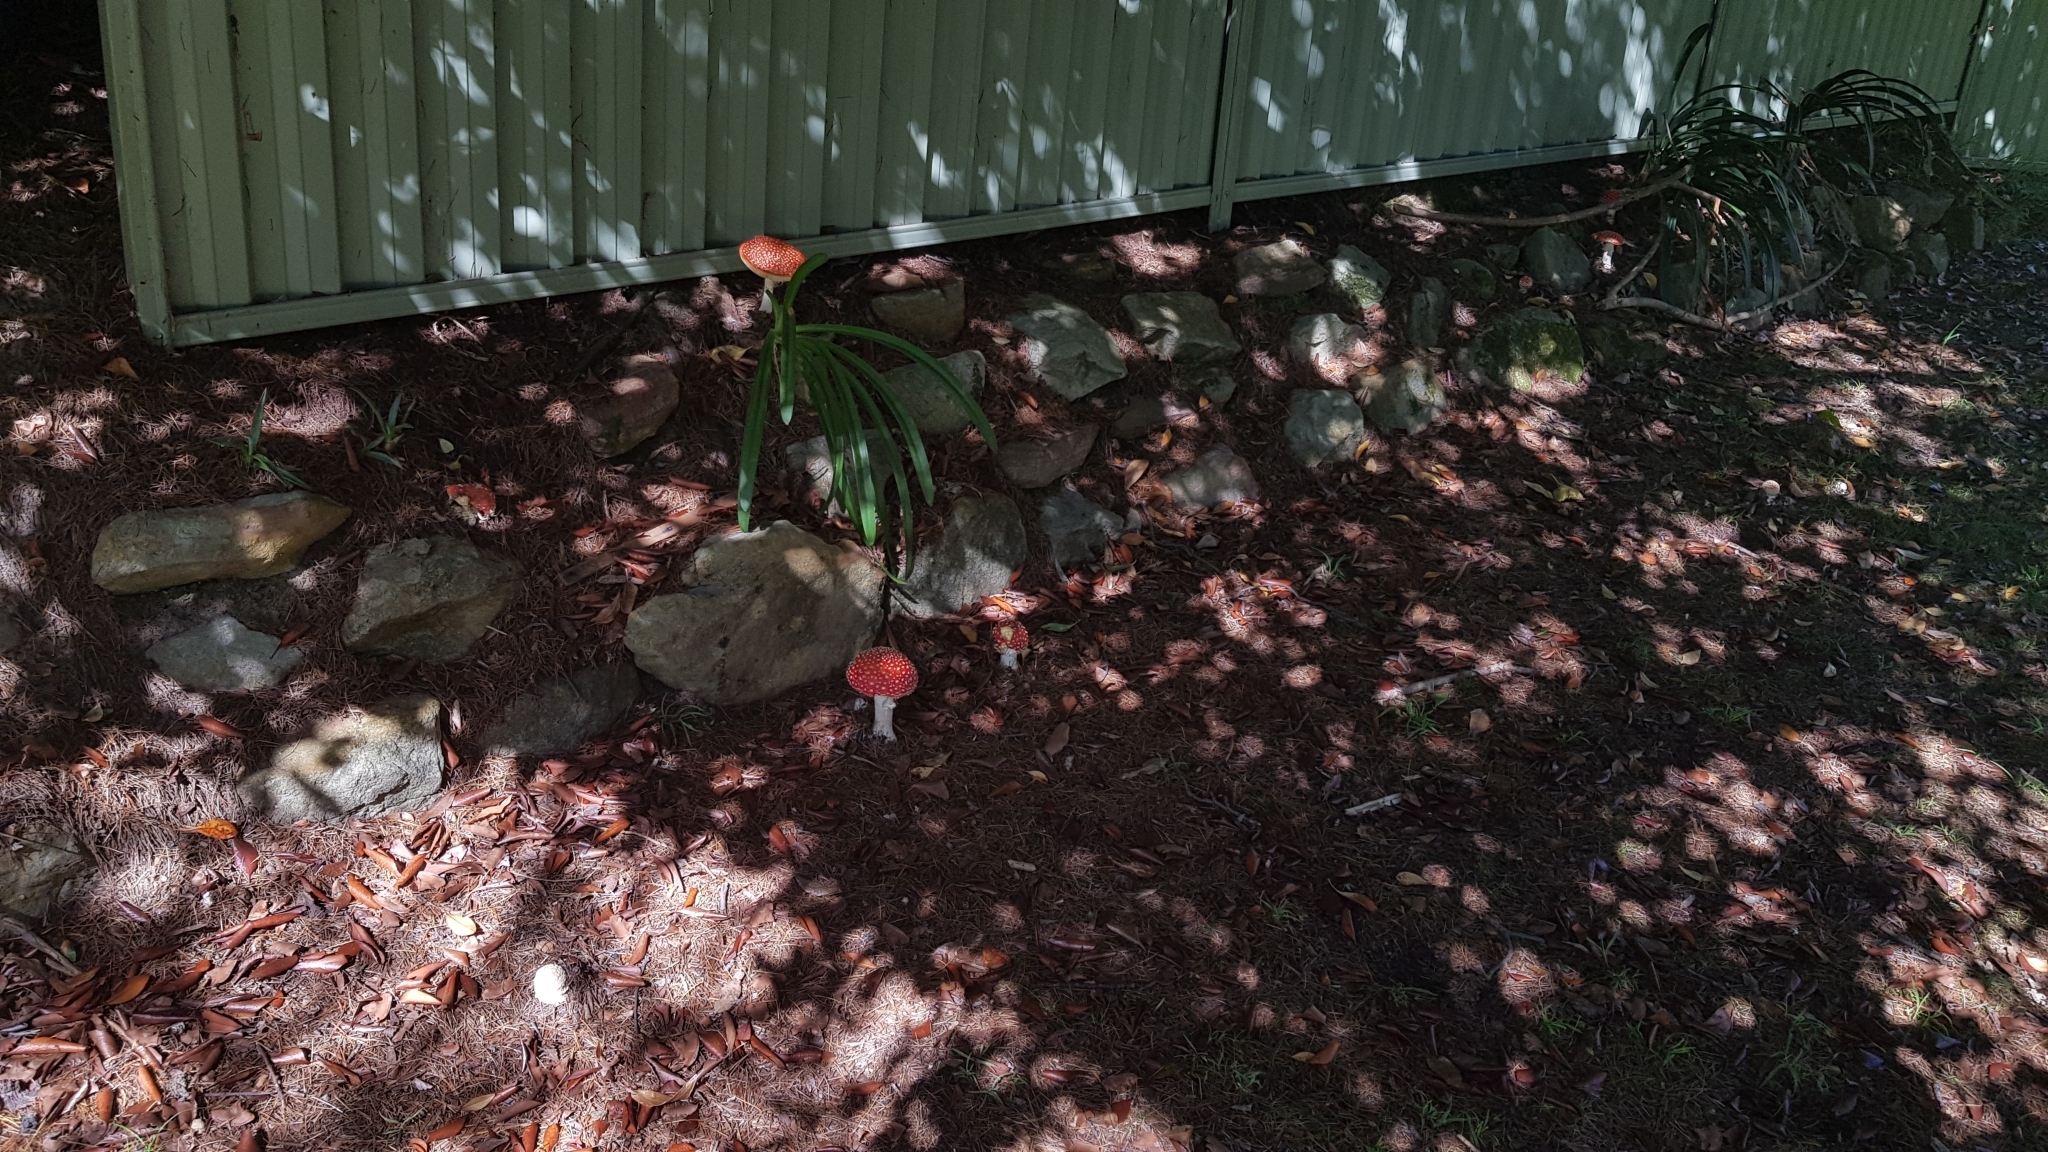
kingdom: Fungi
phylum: Basidiomycota
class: Agaricomycetes
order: Agaricales
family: Amanitaceae
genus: Amanita
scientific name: Amanita muscaria
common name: Fly agaric
